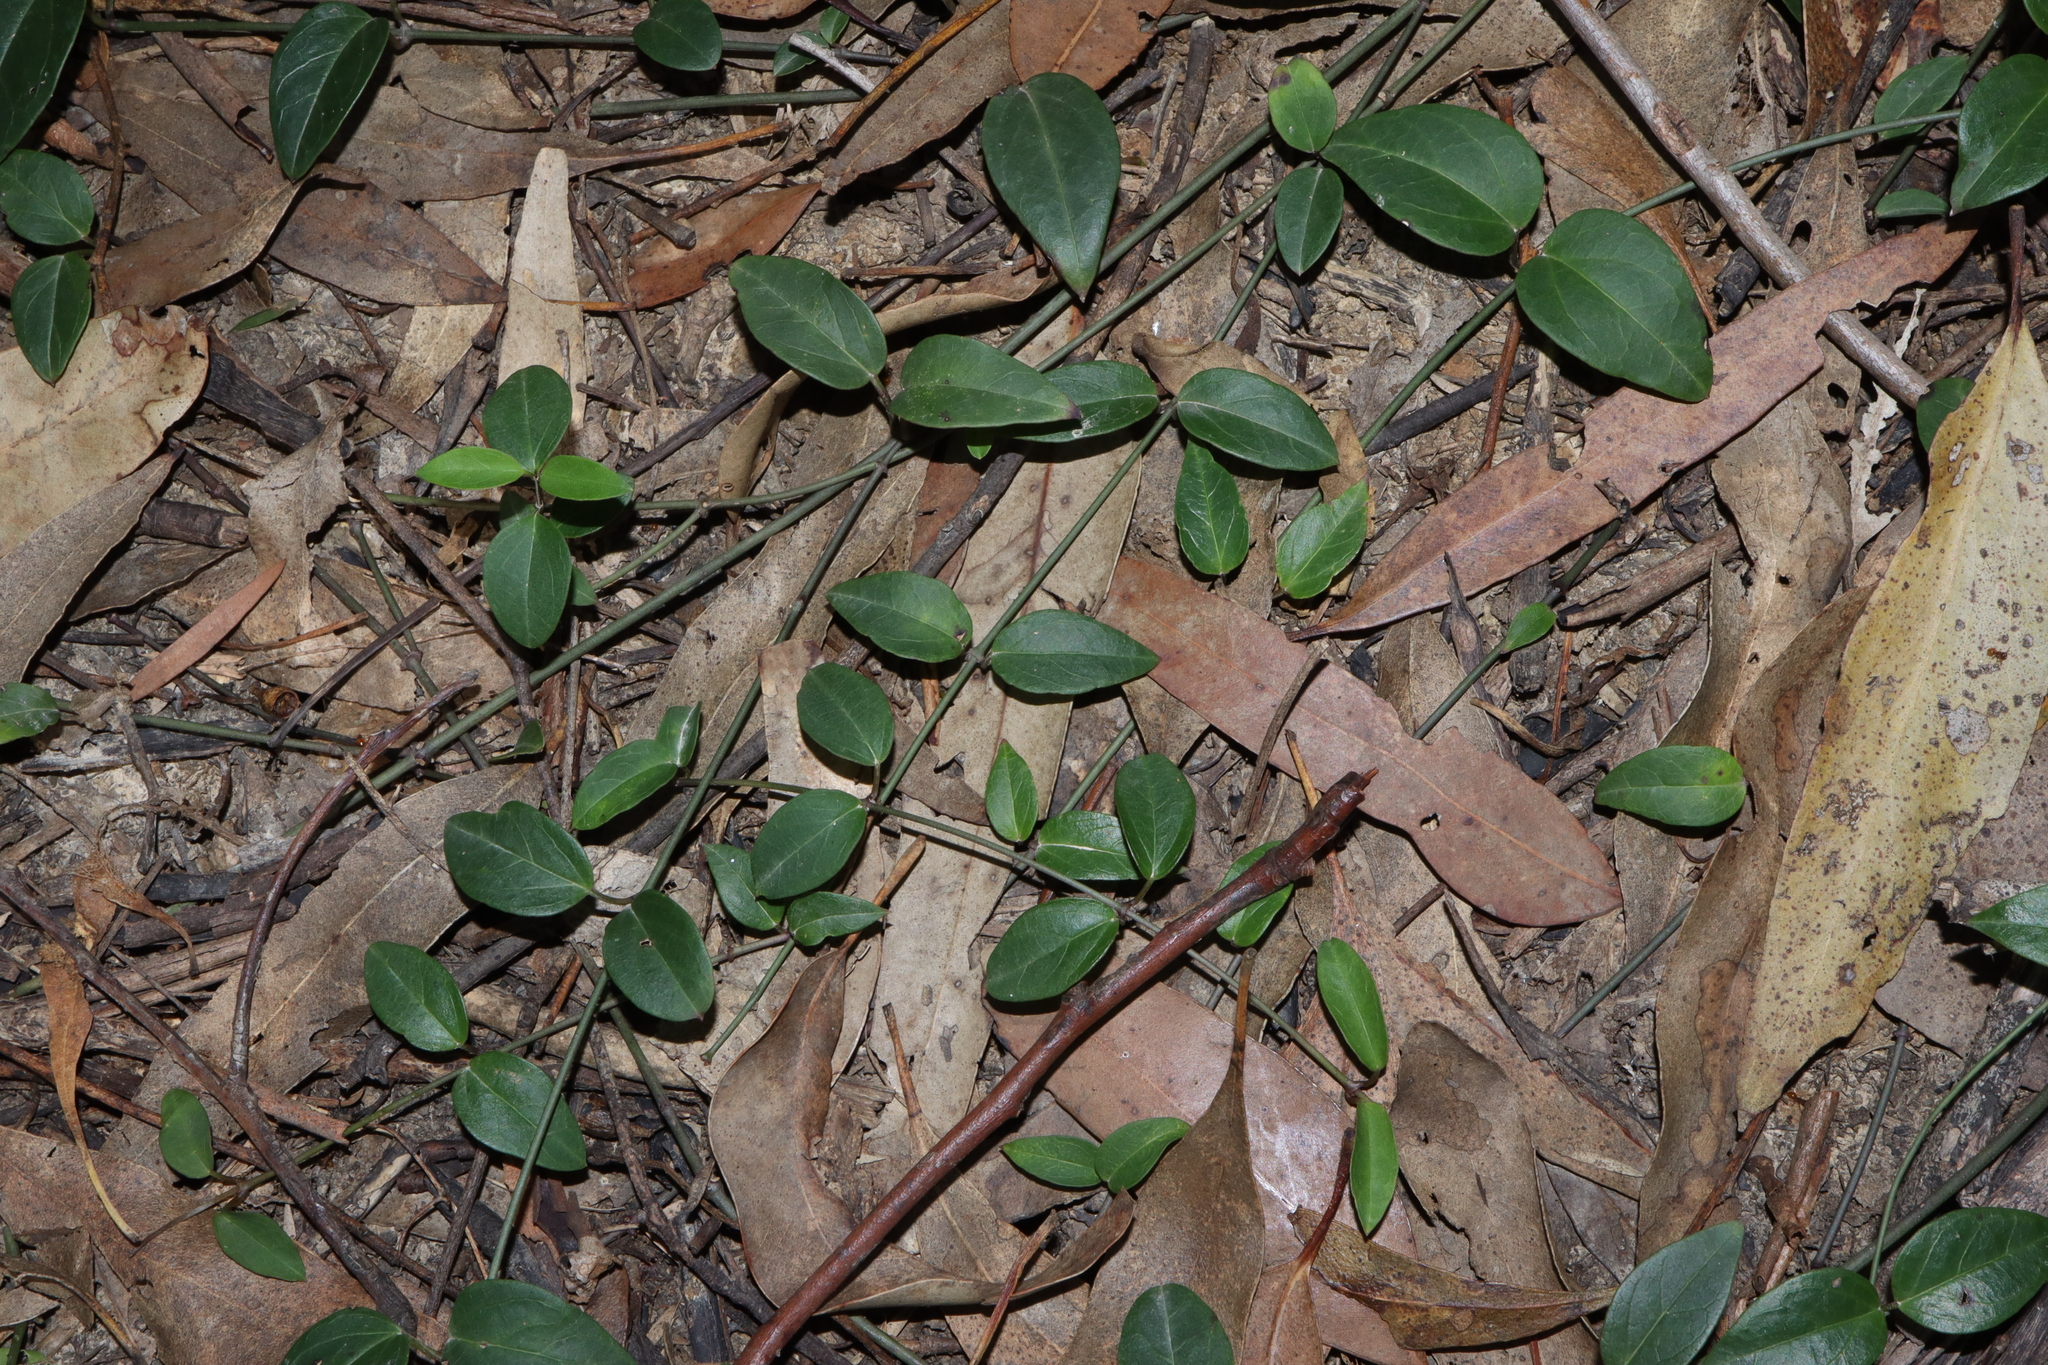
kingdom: Plantae
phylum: Tracheophyta
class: Magnoliopsida
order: Gentianales
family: Apocynaceae
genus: Vincetoxicum
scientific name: Vincetoxicum barbatum
